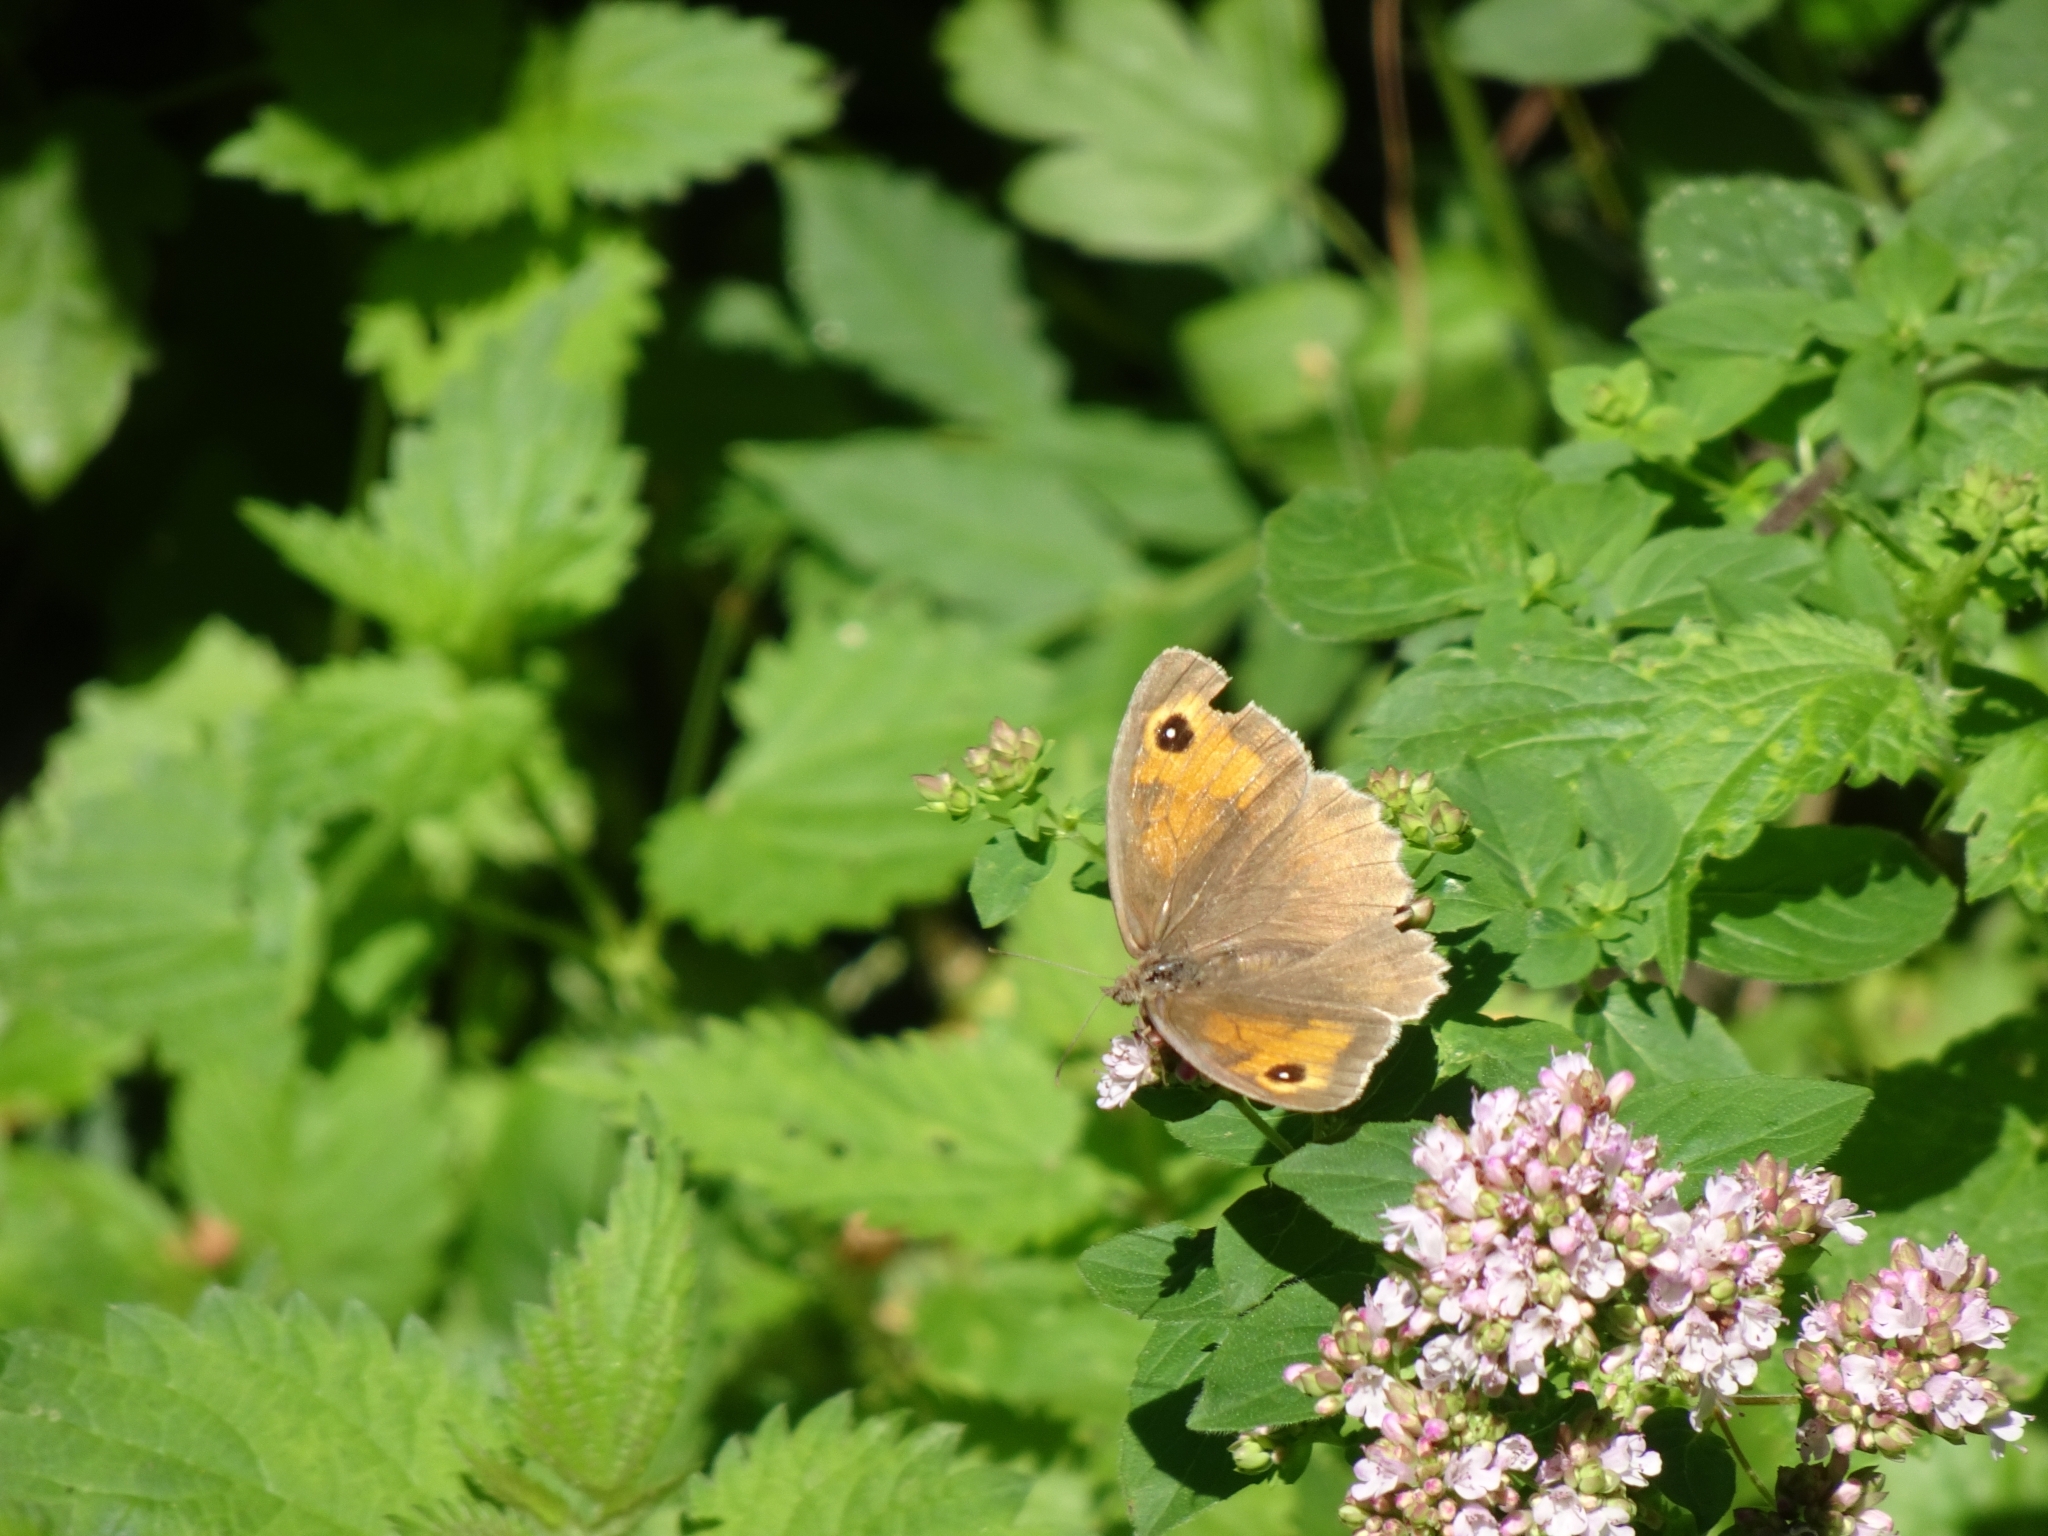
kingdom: Animalia
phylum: Arthropoda
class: Insecta
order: Lepidoptera
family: Nymphalidae
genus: Maniola
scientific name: Maniola jurtina
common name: Meadow brown
